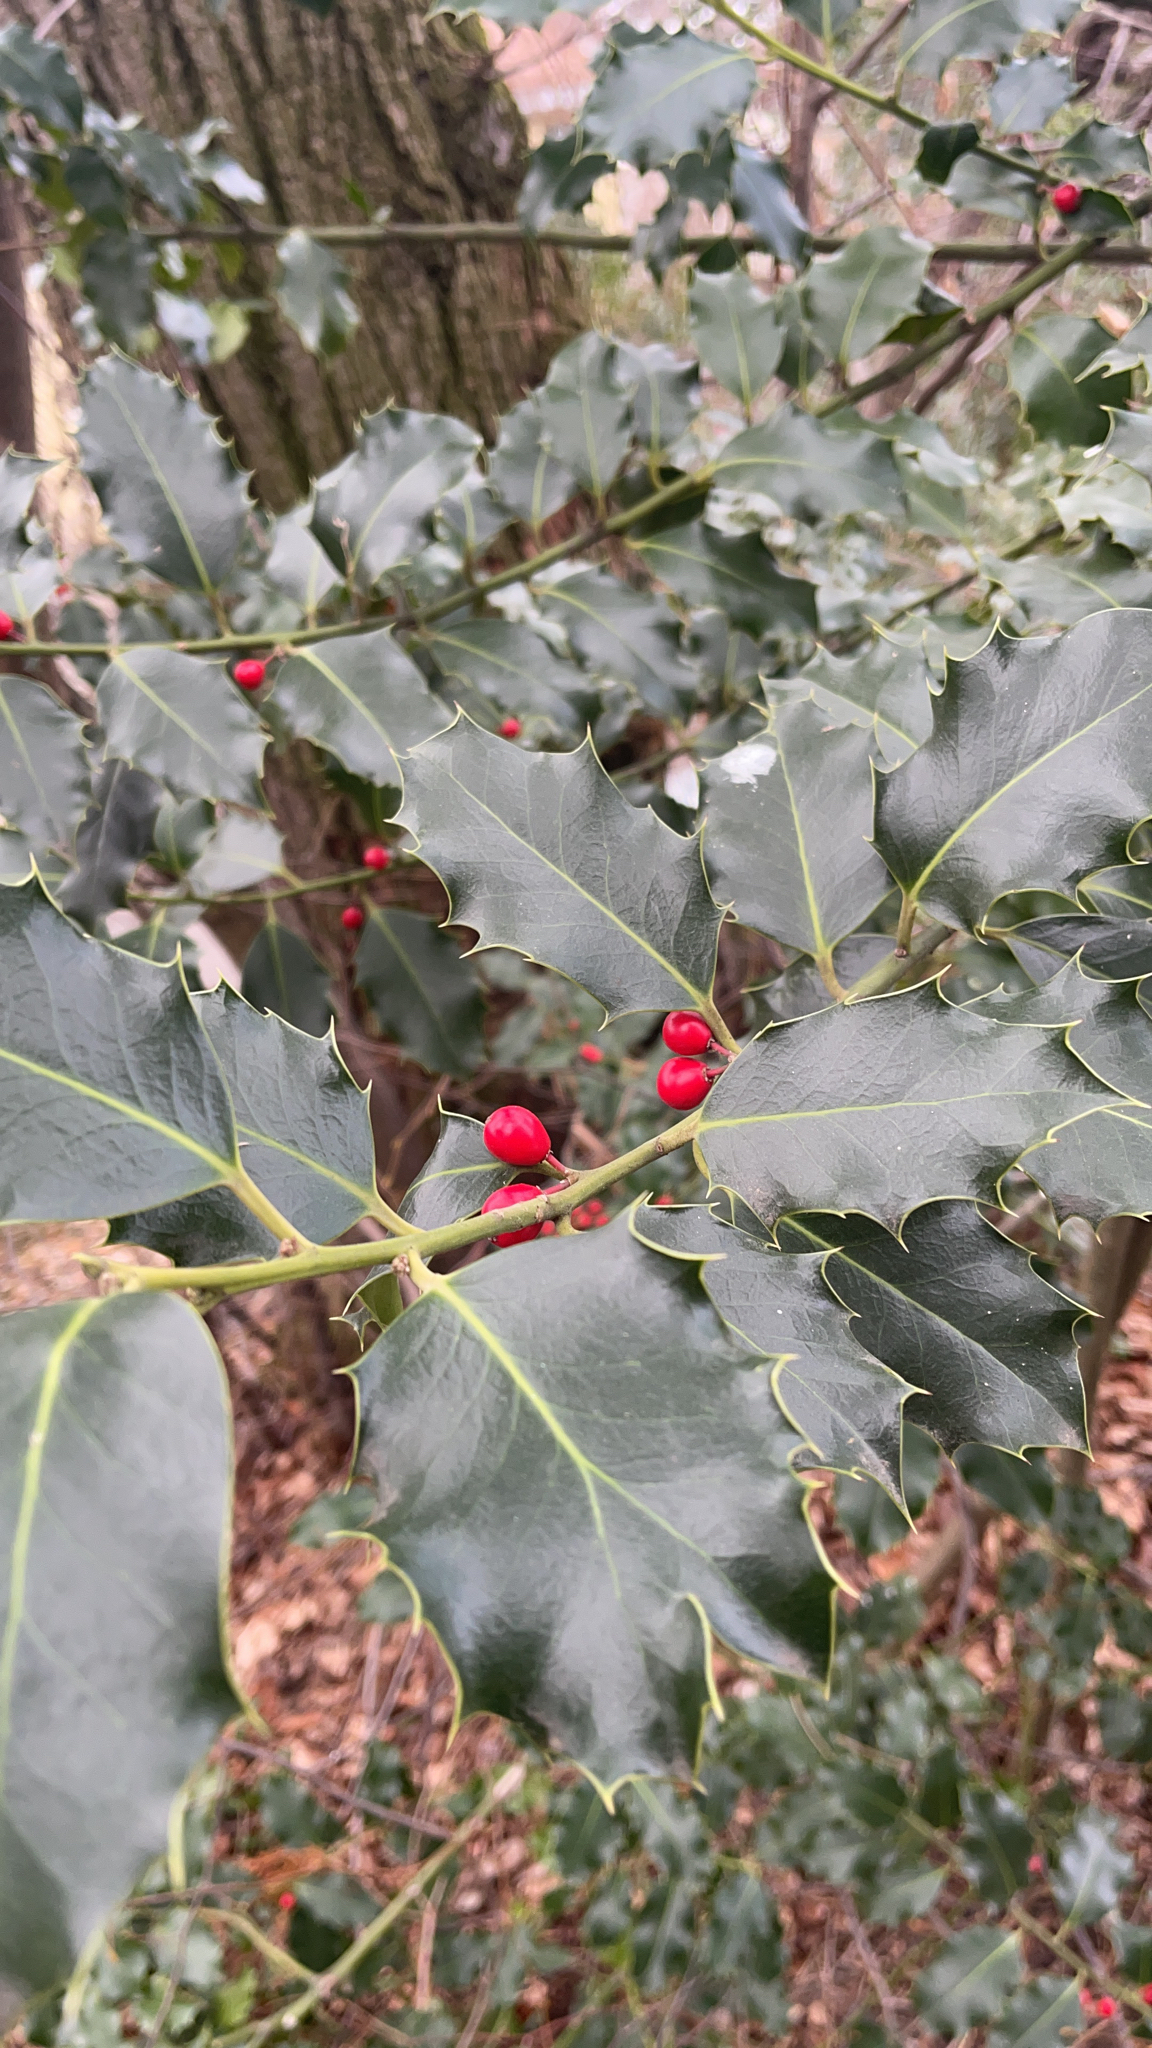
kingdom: Plantae
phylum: Tracheophyta
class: Magnoliopsida
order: Aquifoliales
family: Aquifoliaceae
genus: Ilex
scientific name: Ilex aquifolium
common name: English holly
